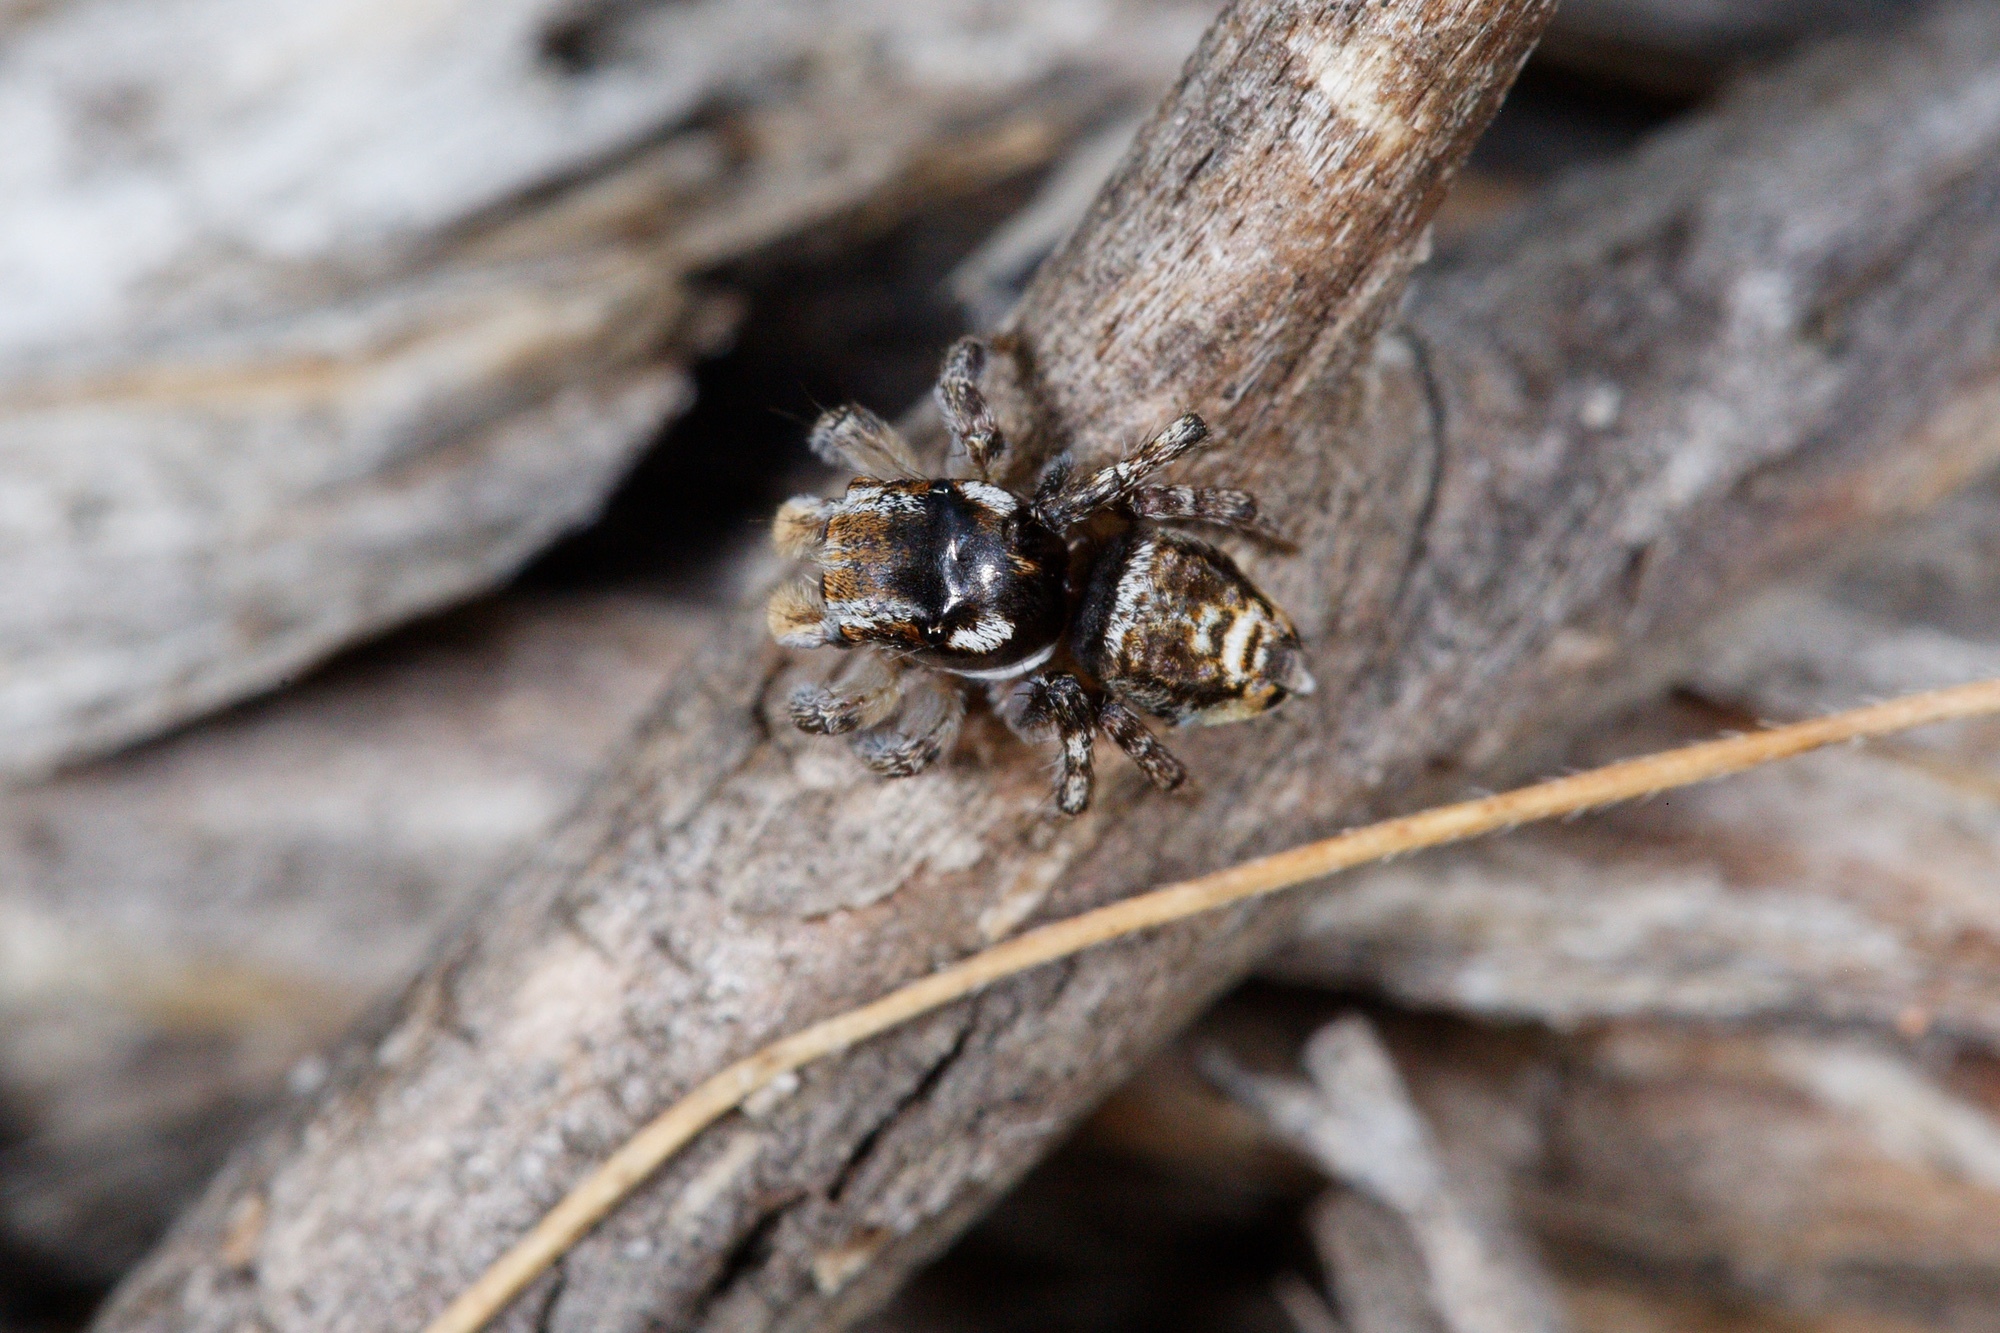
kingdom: Animalia
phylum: Arthropoda
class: Arachnida
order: Araneae
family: Salticidae
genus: Maratus
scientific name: Maratus plumosus
